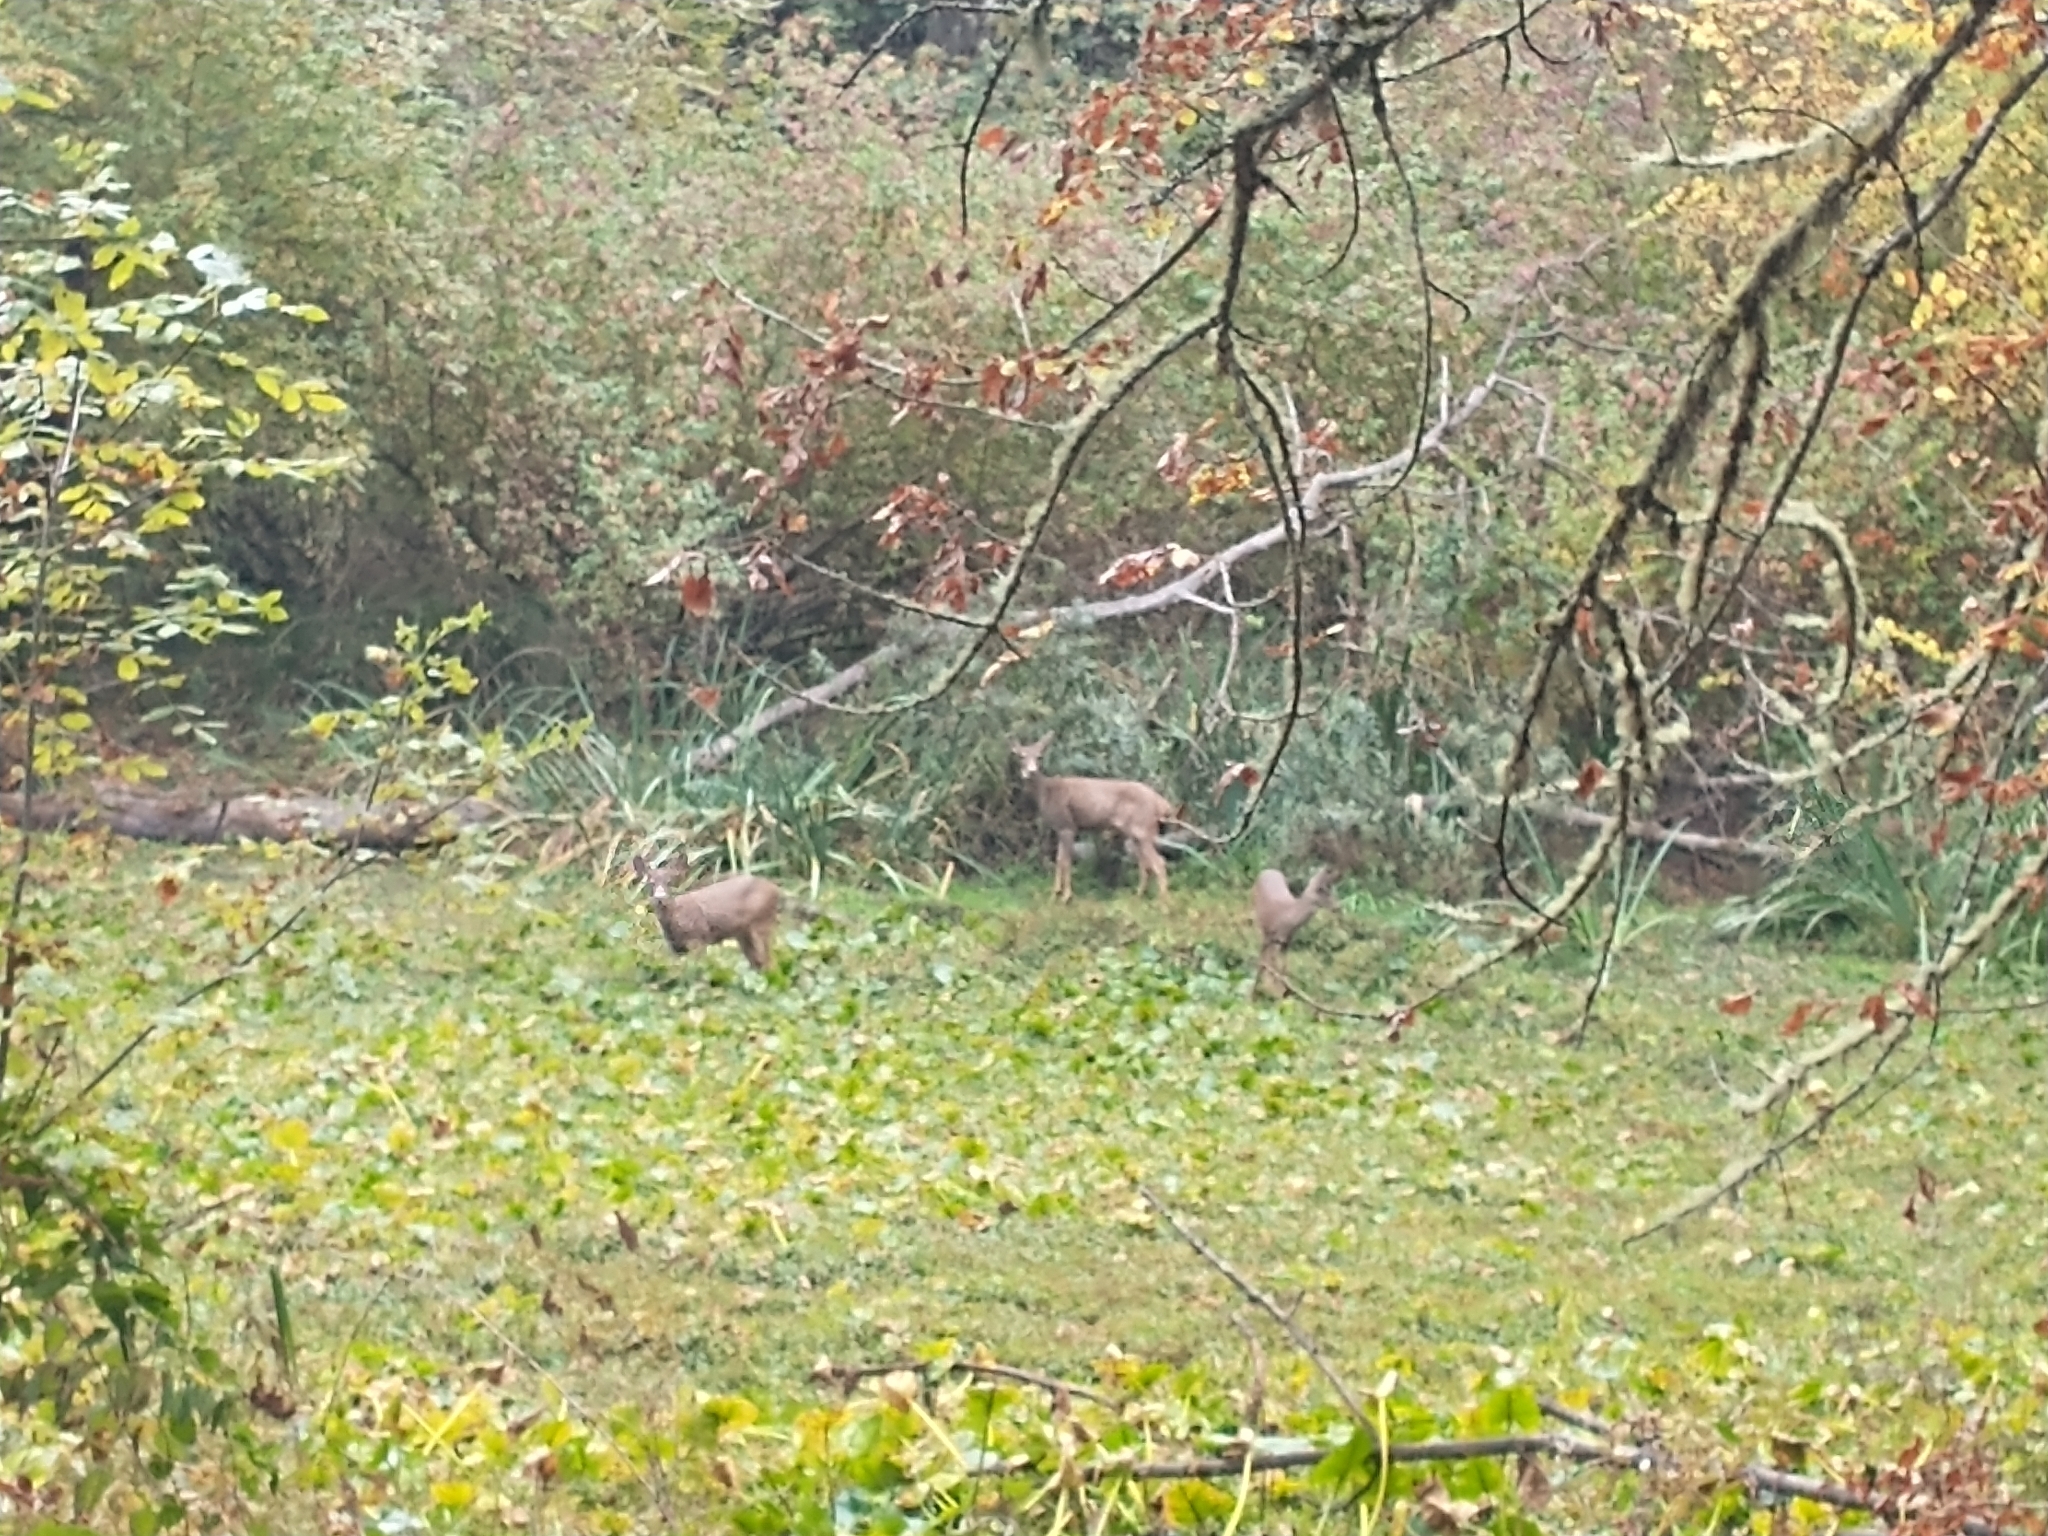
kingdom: Animalia
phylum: Chordata
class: Mammalia
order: Artiodactyla
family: Cervidae
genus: Odocoileus
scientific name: Odocoileus hemionus
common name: Mule deer
